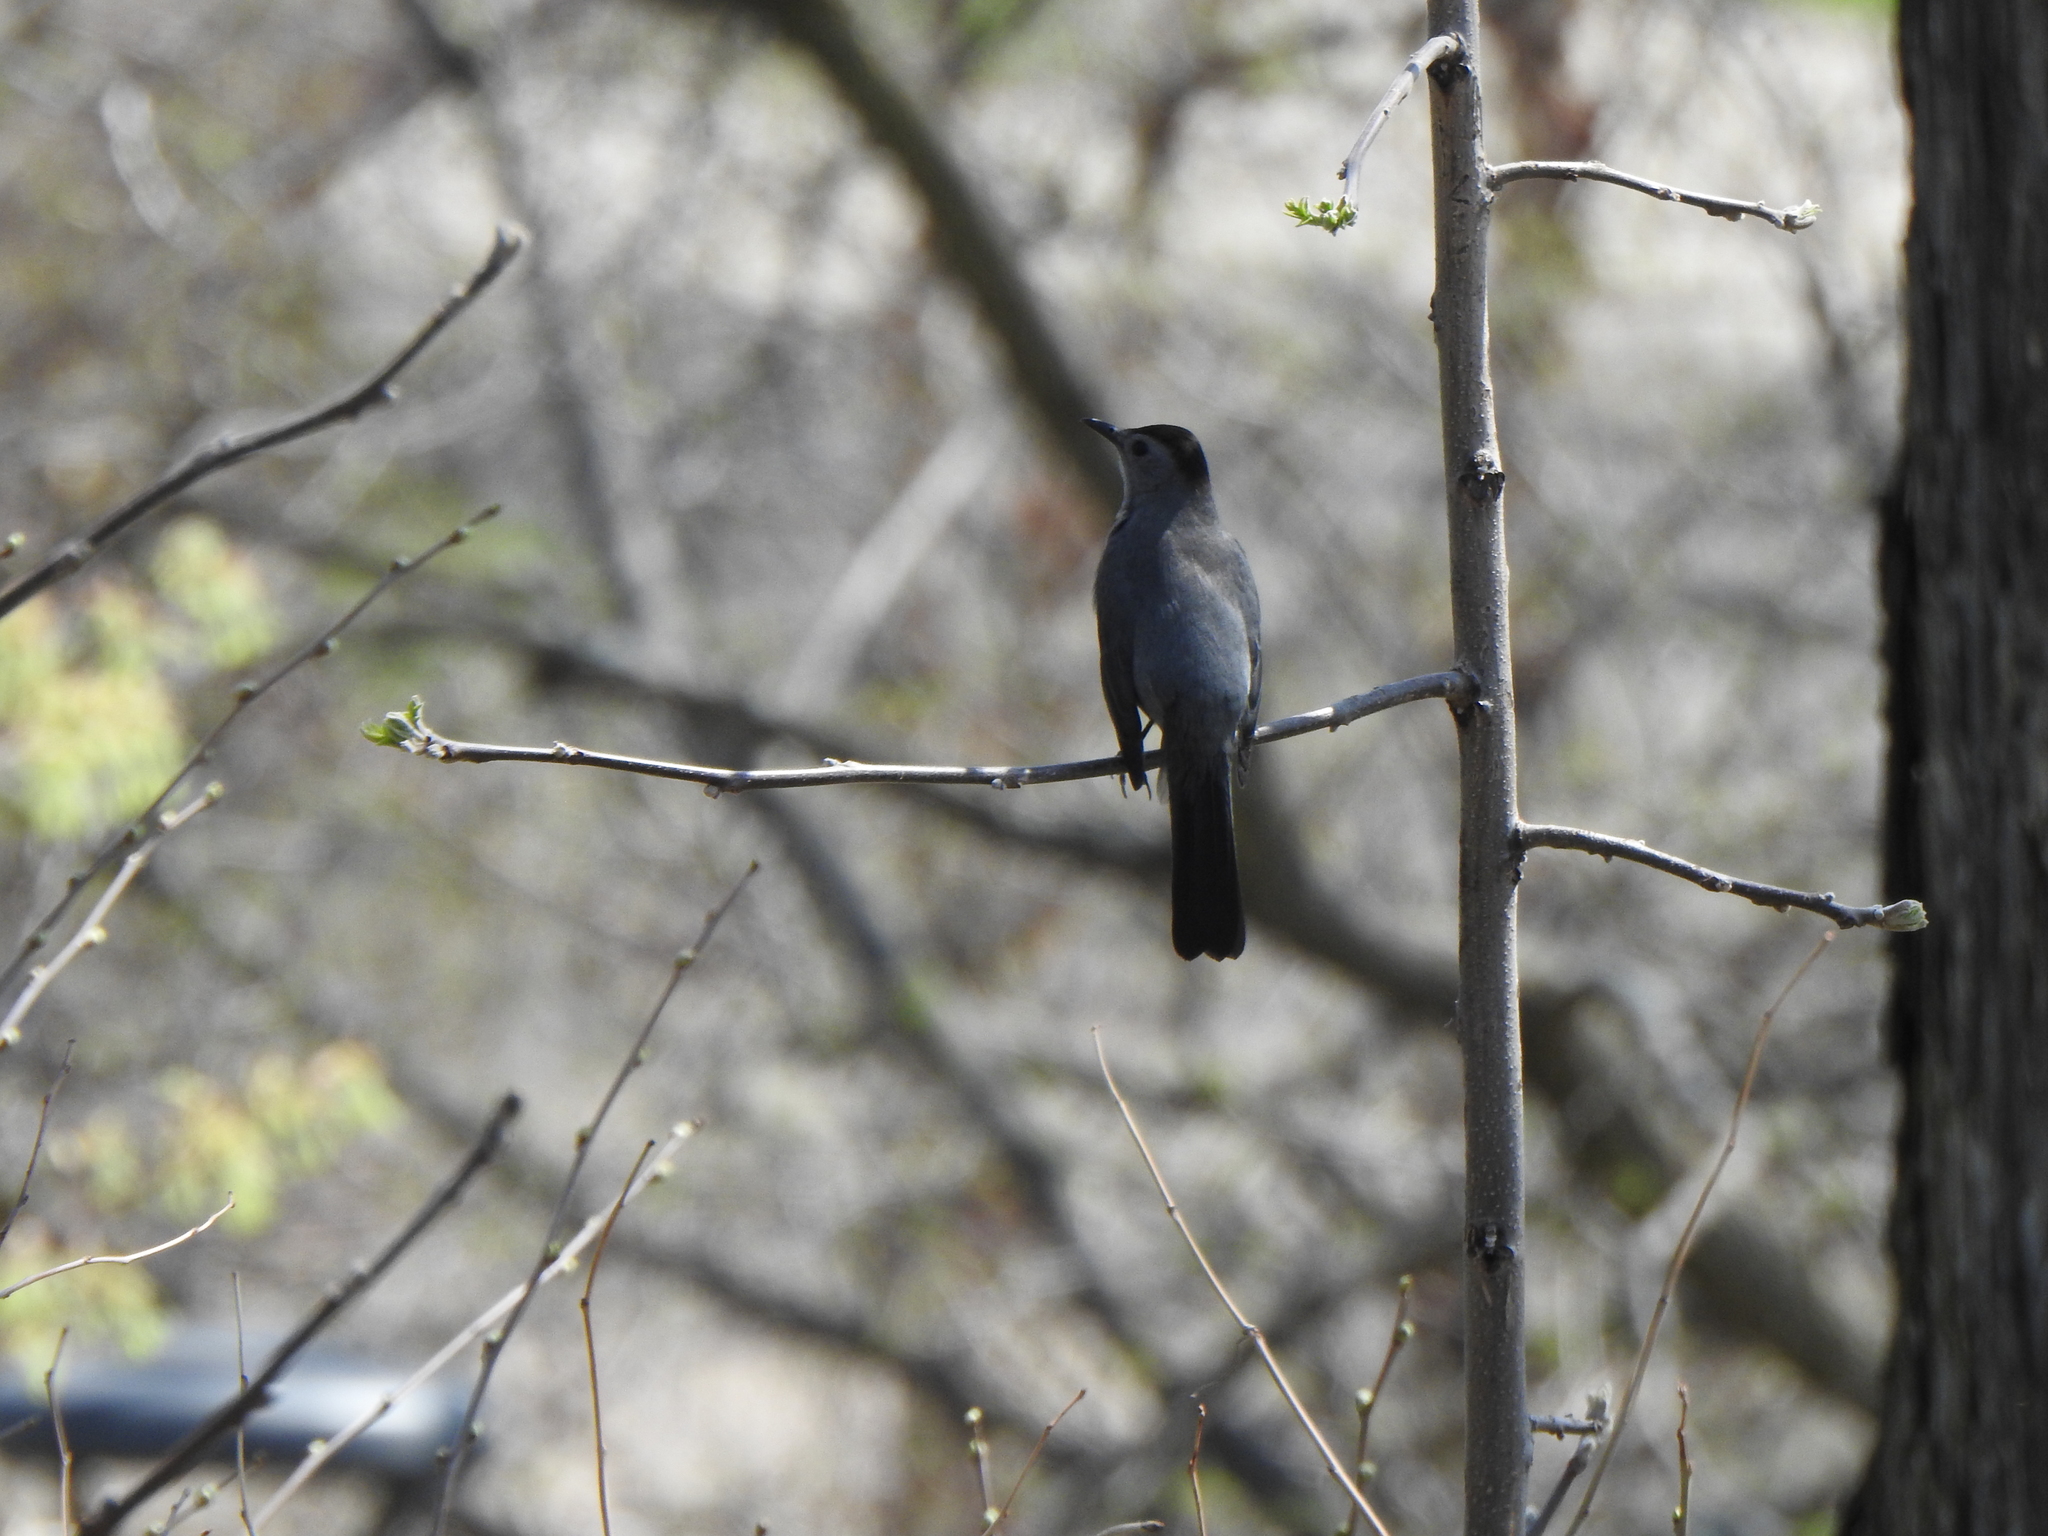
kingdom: Animalia
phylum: Chordata
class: Aves
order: Passeriformes
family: Mimidae
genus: Dumetella
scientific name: Dumetella carolinensis
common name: Gray catbird
